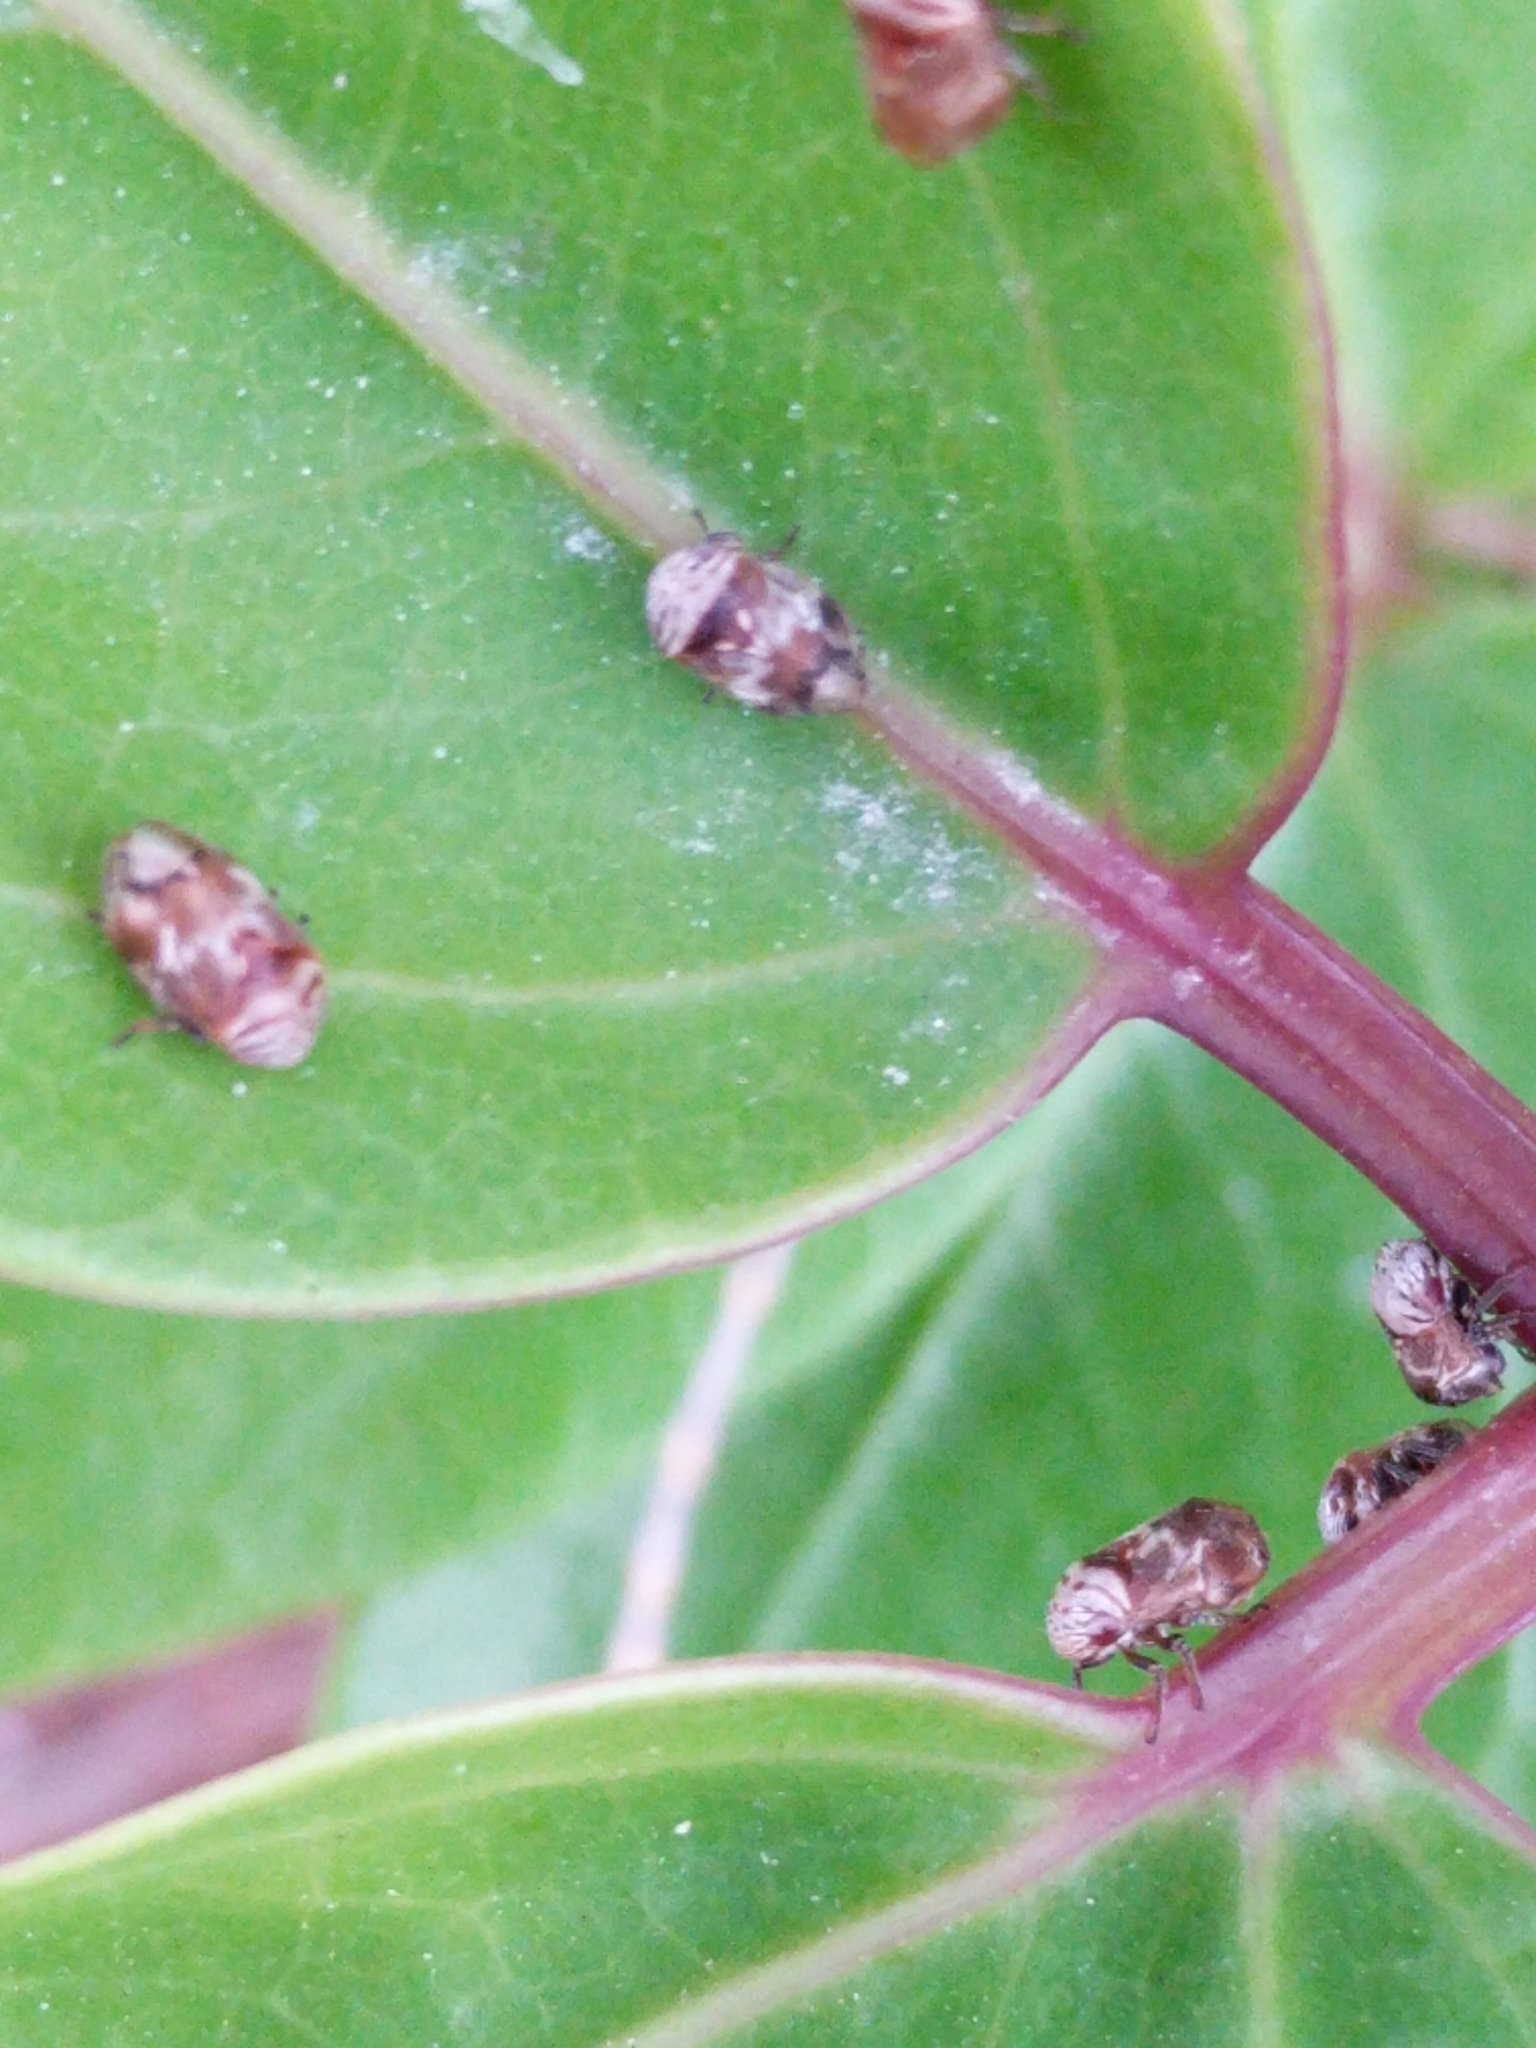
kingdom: Animalia
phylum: Arthropoda
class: Insecta
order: Hemiptera
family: Clastopteridae
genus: Clastoptera
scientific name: Clastoptera undulata
